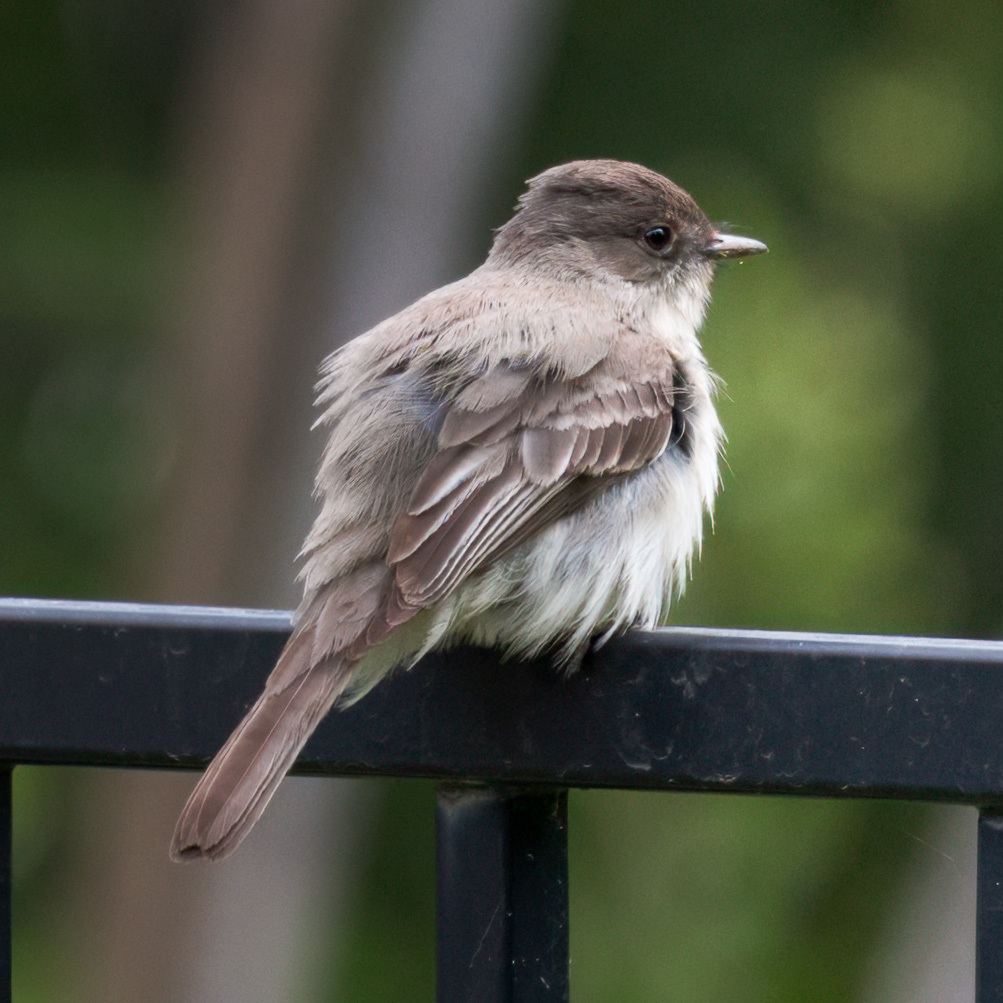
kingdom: Animalia
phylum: Chordata
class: Aves
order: Passeriformes
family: Tyrannidae
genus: Sayornis
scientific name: Sayornis phoebe
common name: Eastern phoebe
